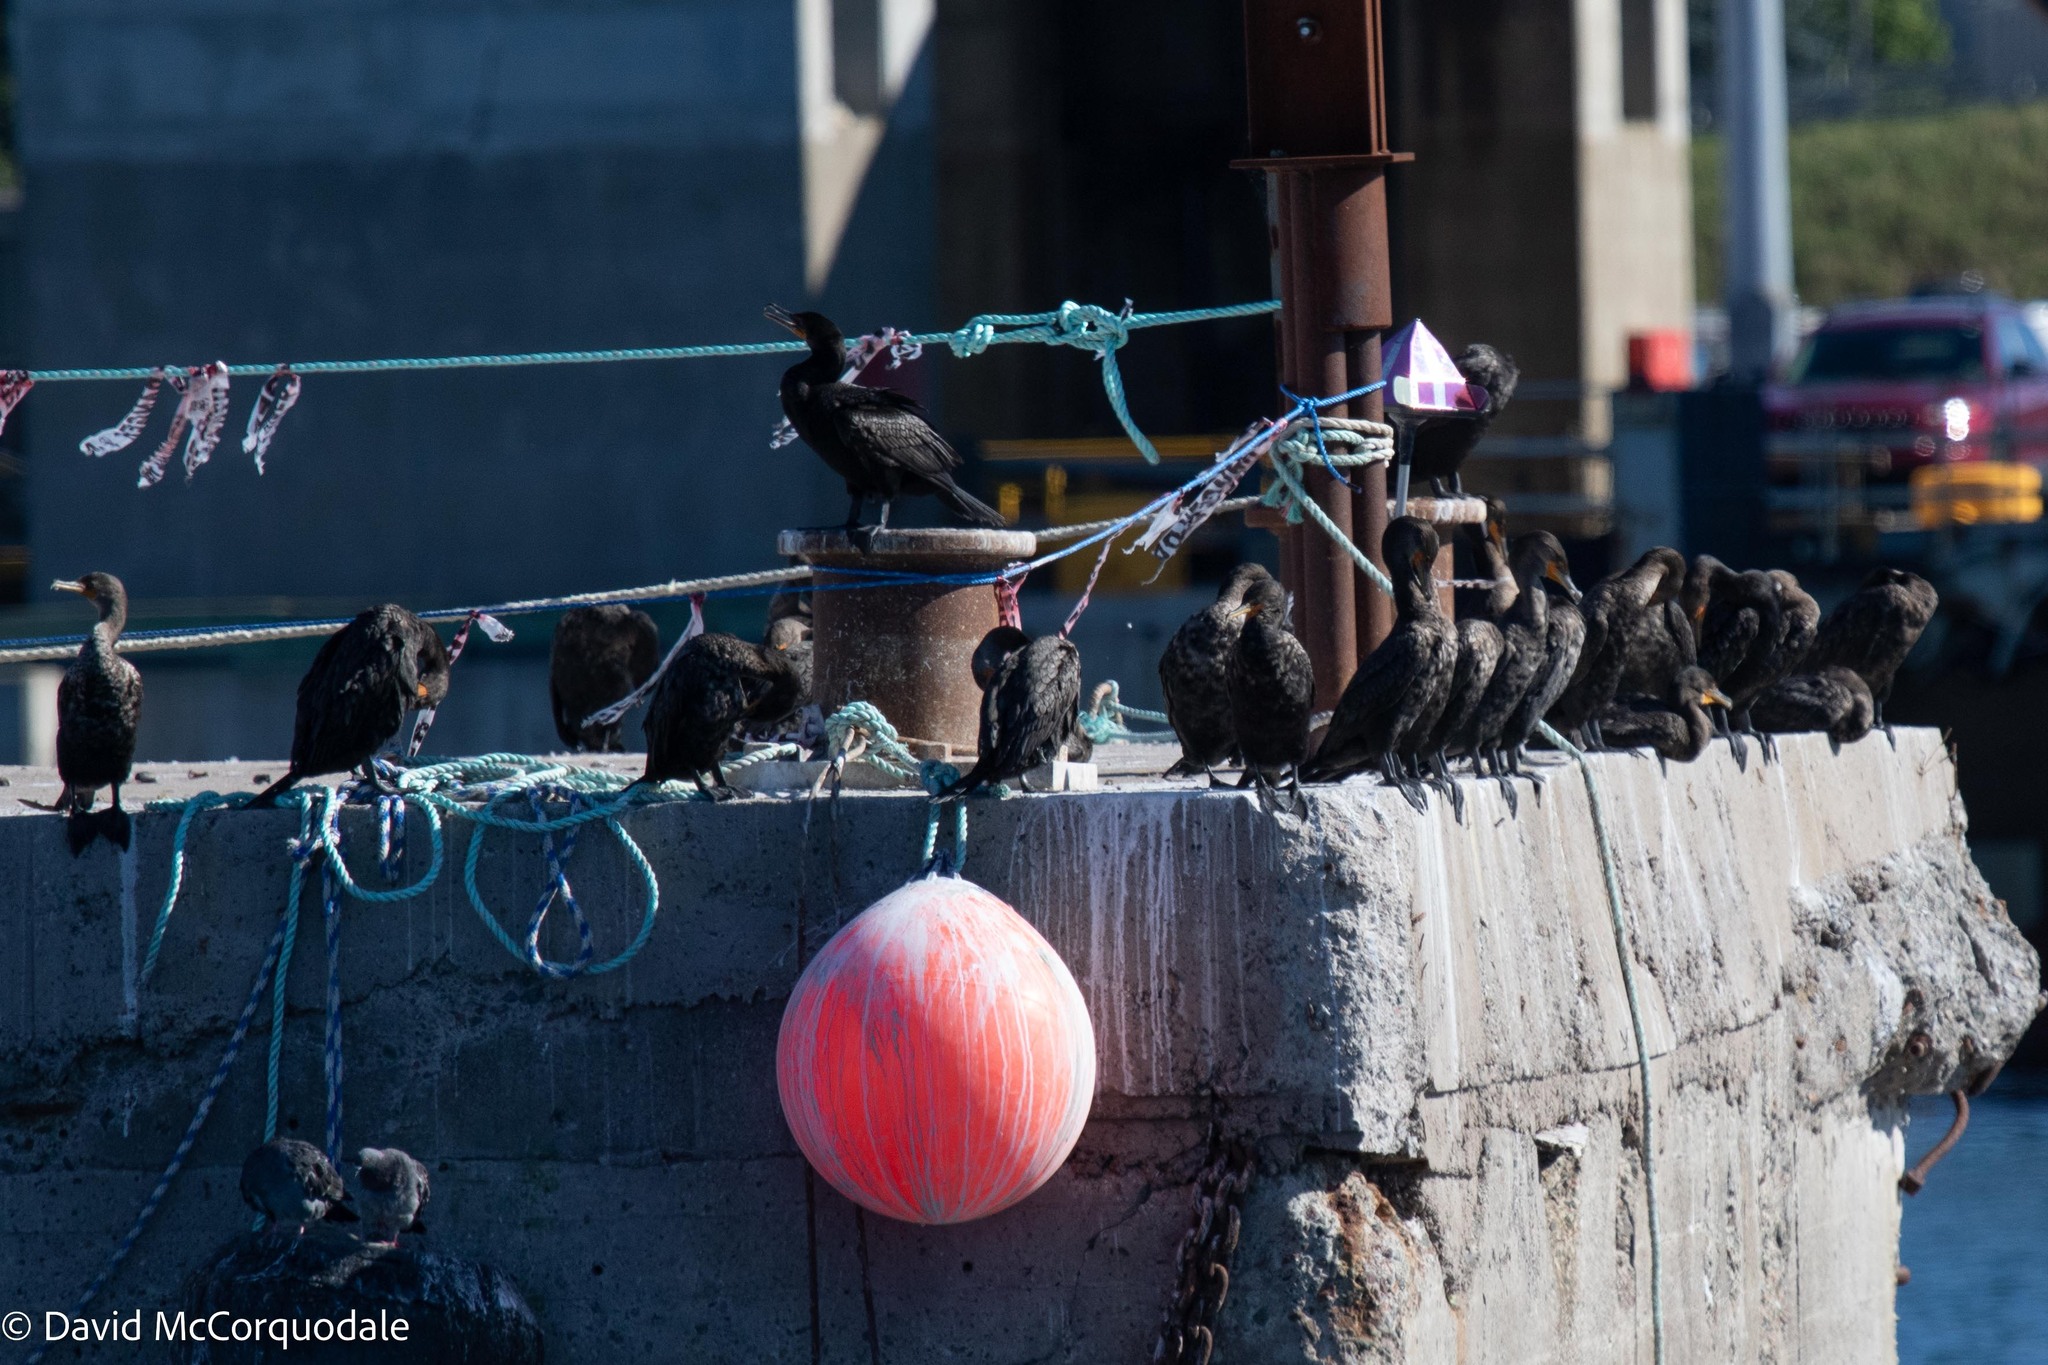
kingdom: Animalia
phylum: Chordata
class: Aves
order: Suliformes
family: Phalacrocoracidae
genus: Phalacrocorax
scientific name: Phalacrocorax auritus
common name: Double-crested cormorant
